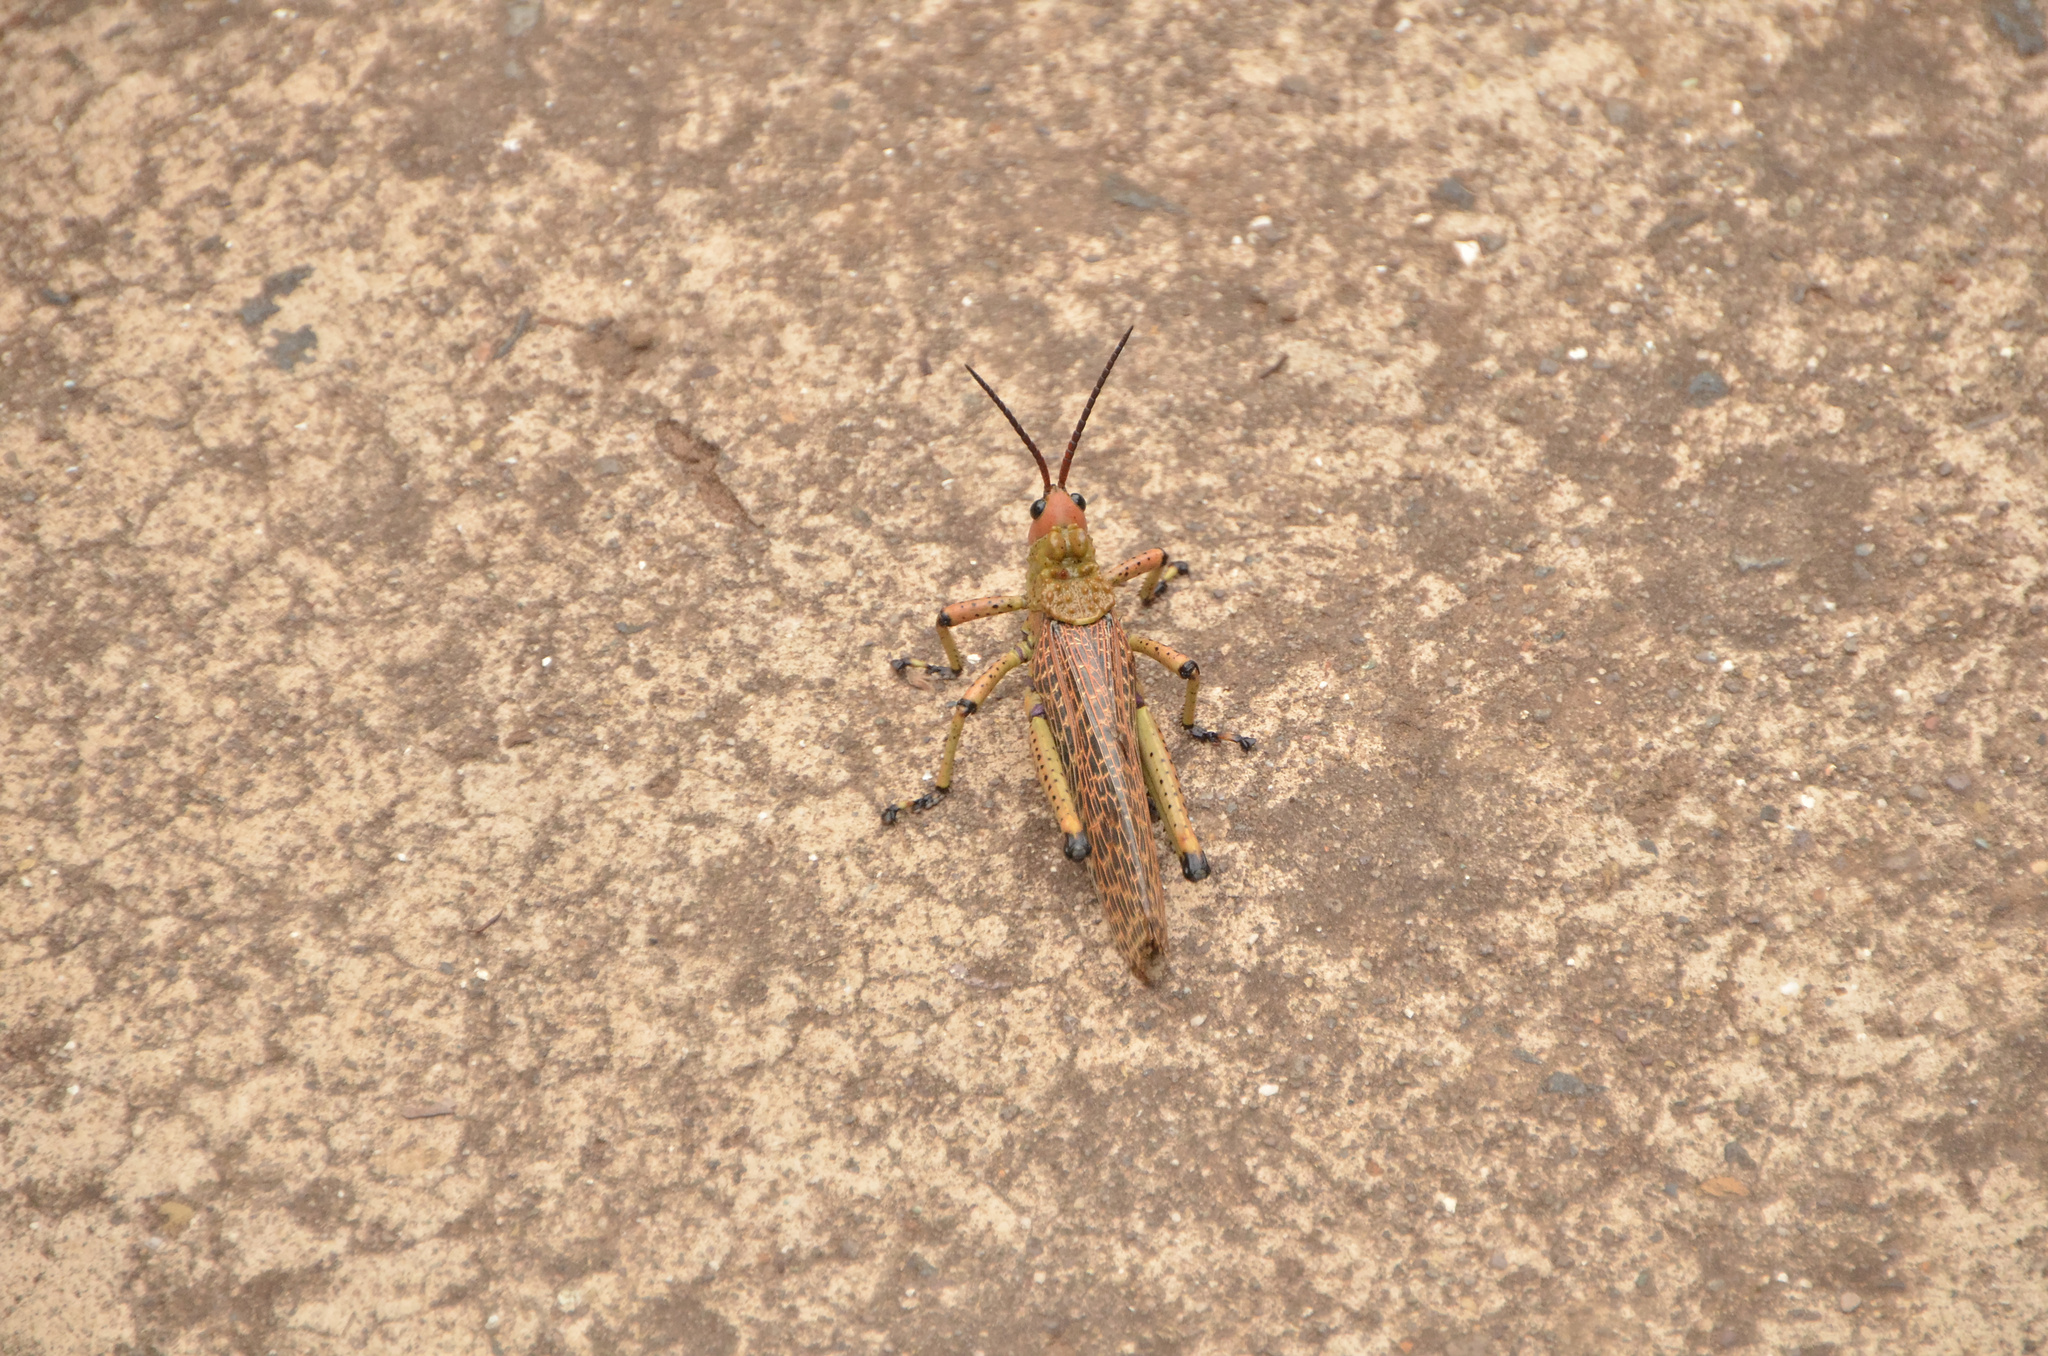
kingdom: Animalia
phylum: Arthropoda
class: Insecta
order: Orthoptera
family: Pyrgomorphidae
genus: Phymateus
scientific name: Phymateus leprosus
